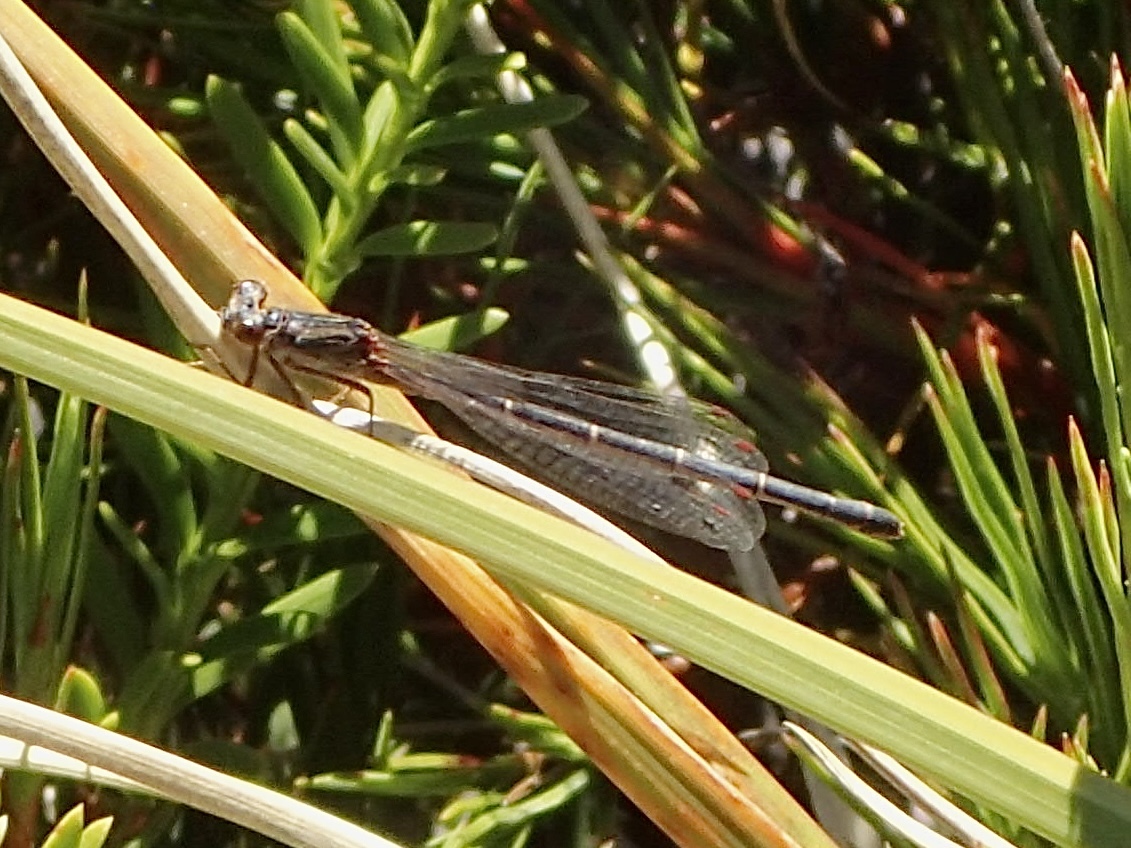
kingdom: Animalia
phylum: Arthropoda
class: Insecta
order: Odonata
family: Coenagrionidae
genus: Xanthocnemis
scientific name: Xanthocnemis zealandica
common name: Common redcoat damselfly
